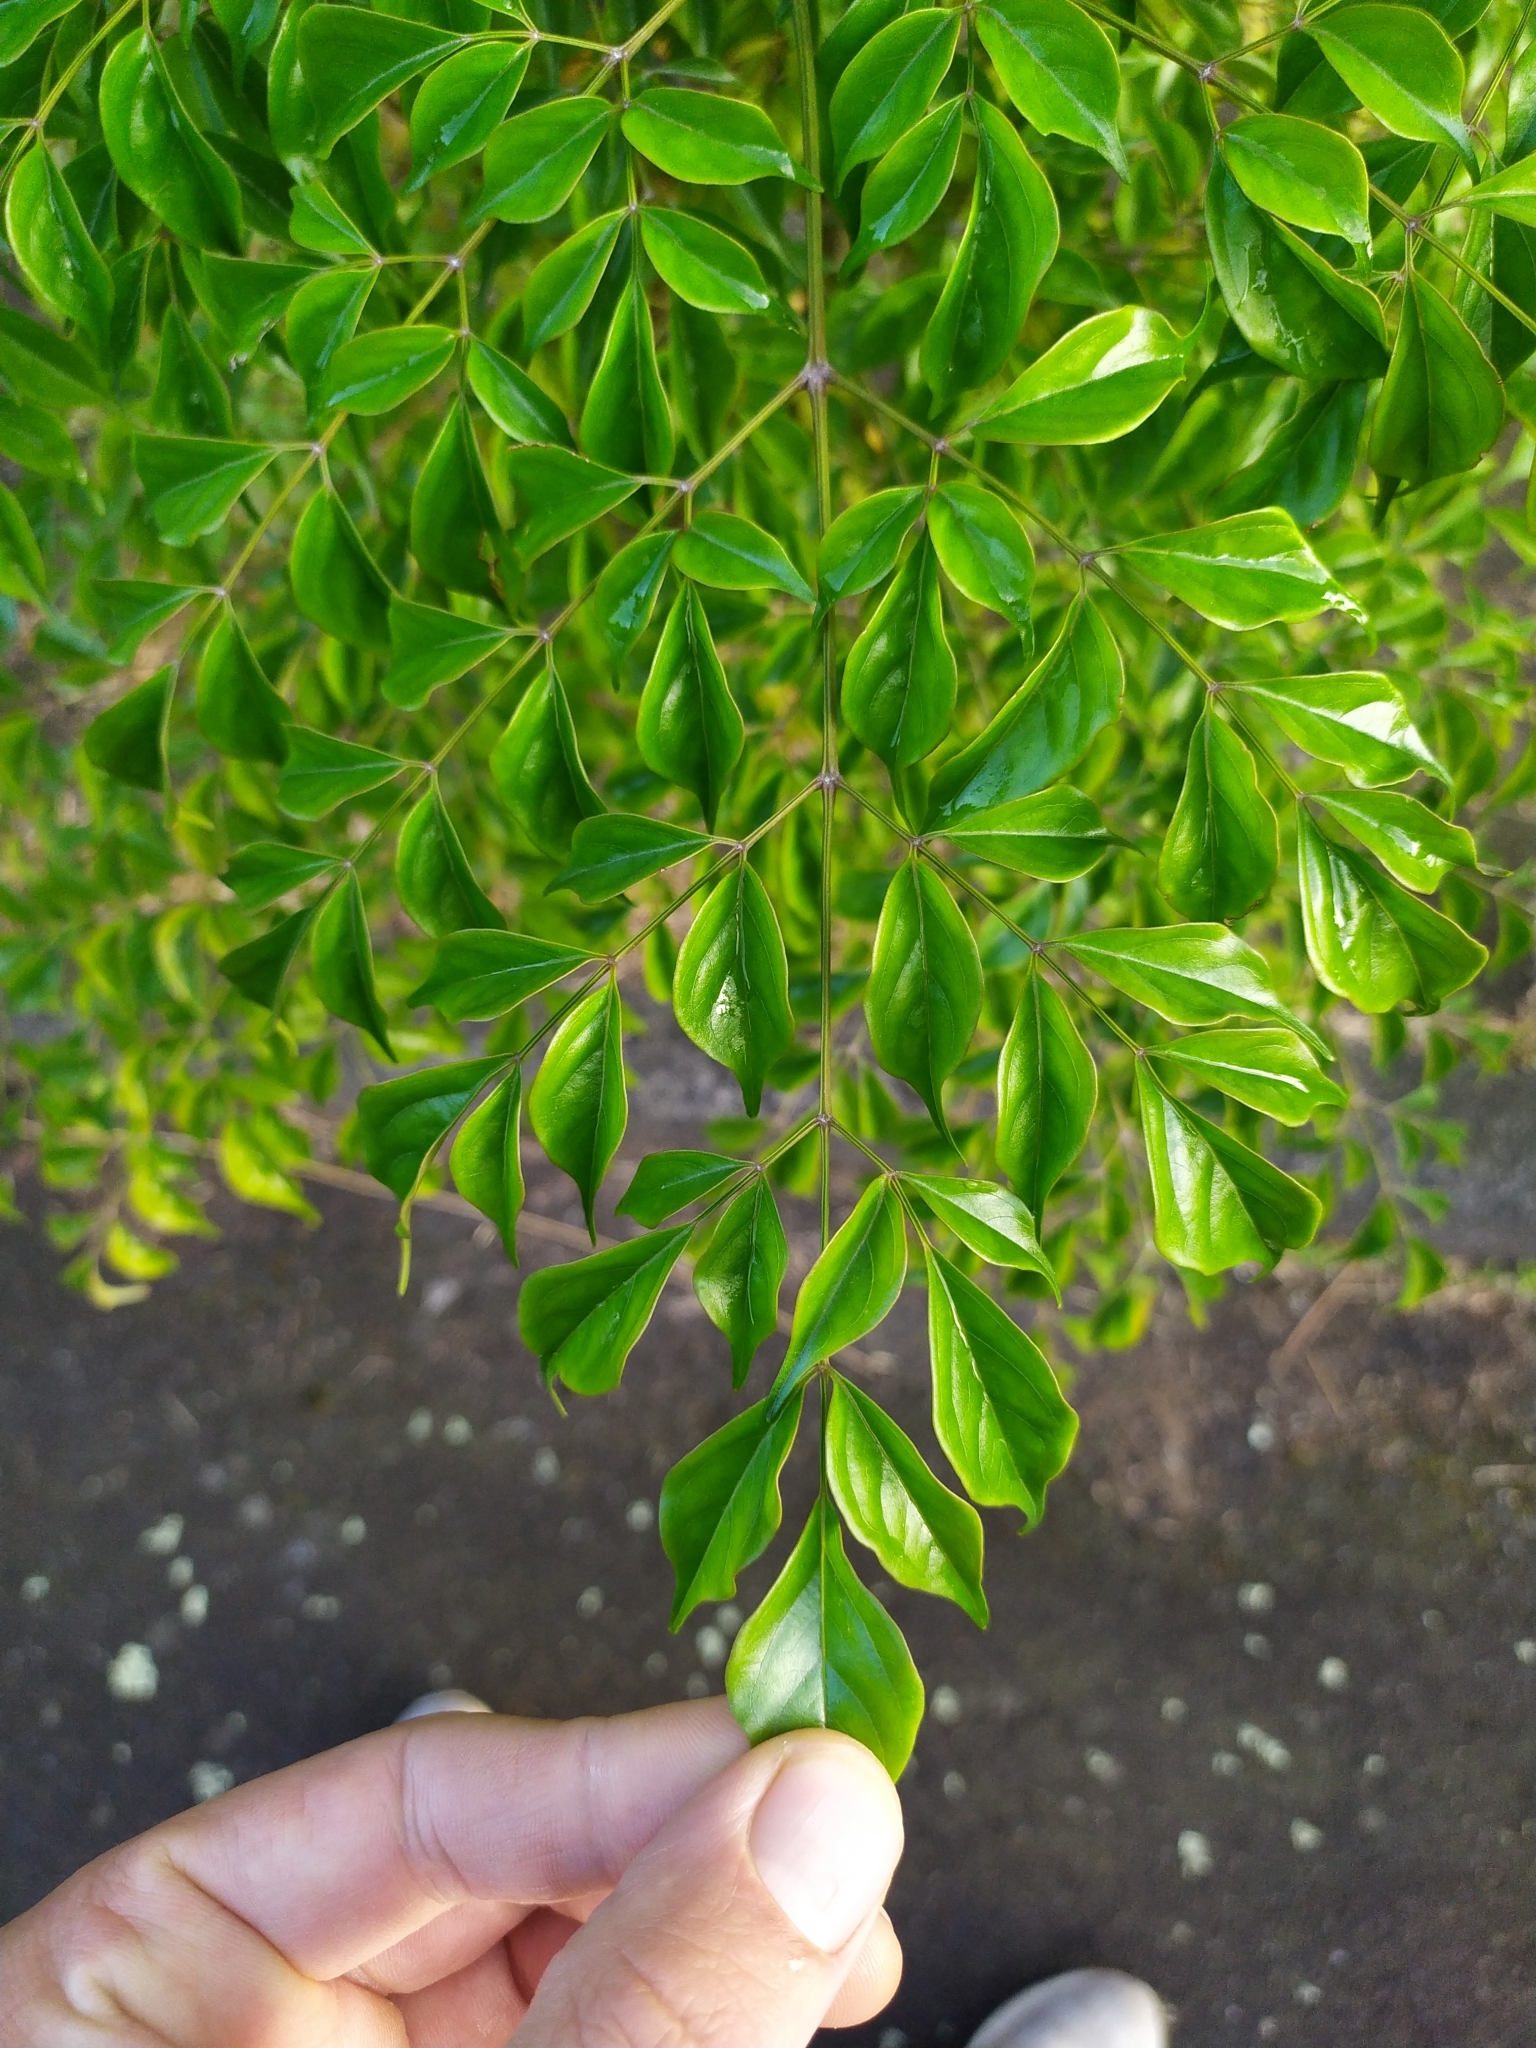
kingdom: Plantae
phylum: Tracheophyta
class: Magnoliopsida
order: Lamiales
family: Bignoniaceae
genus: Radermachera
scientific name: Radermachera sinica
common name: China doll plant
